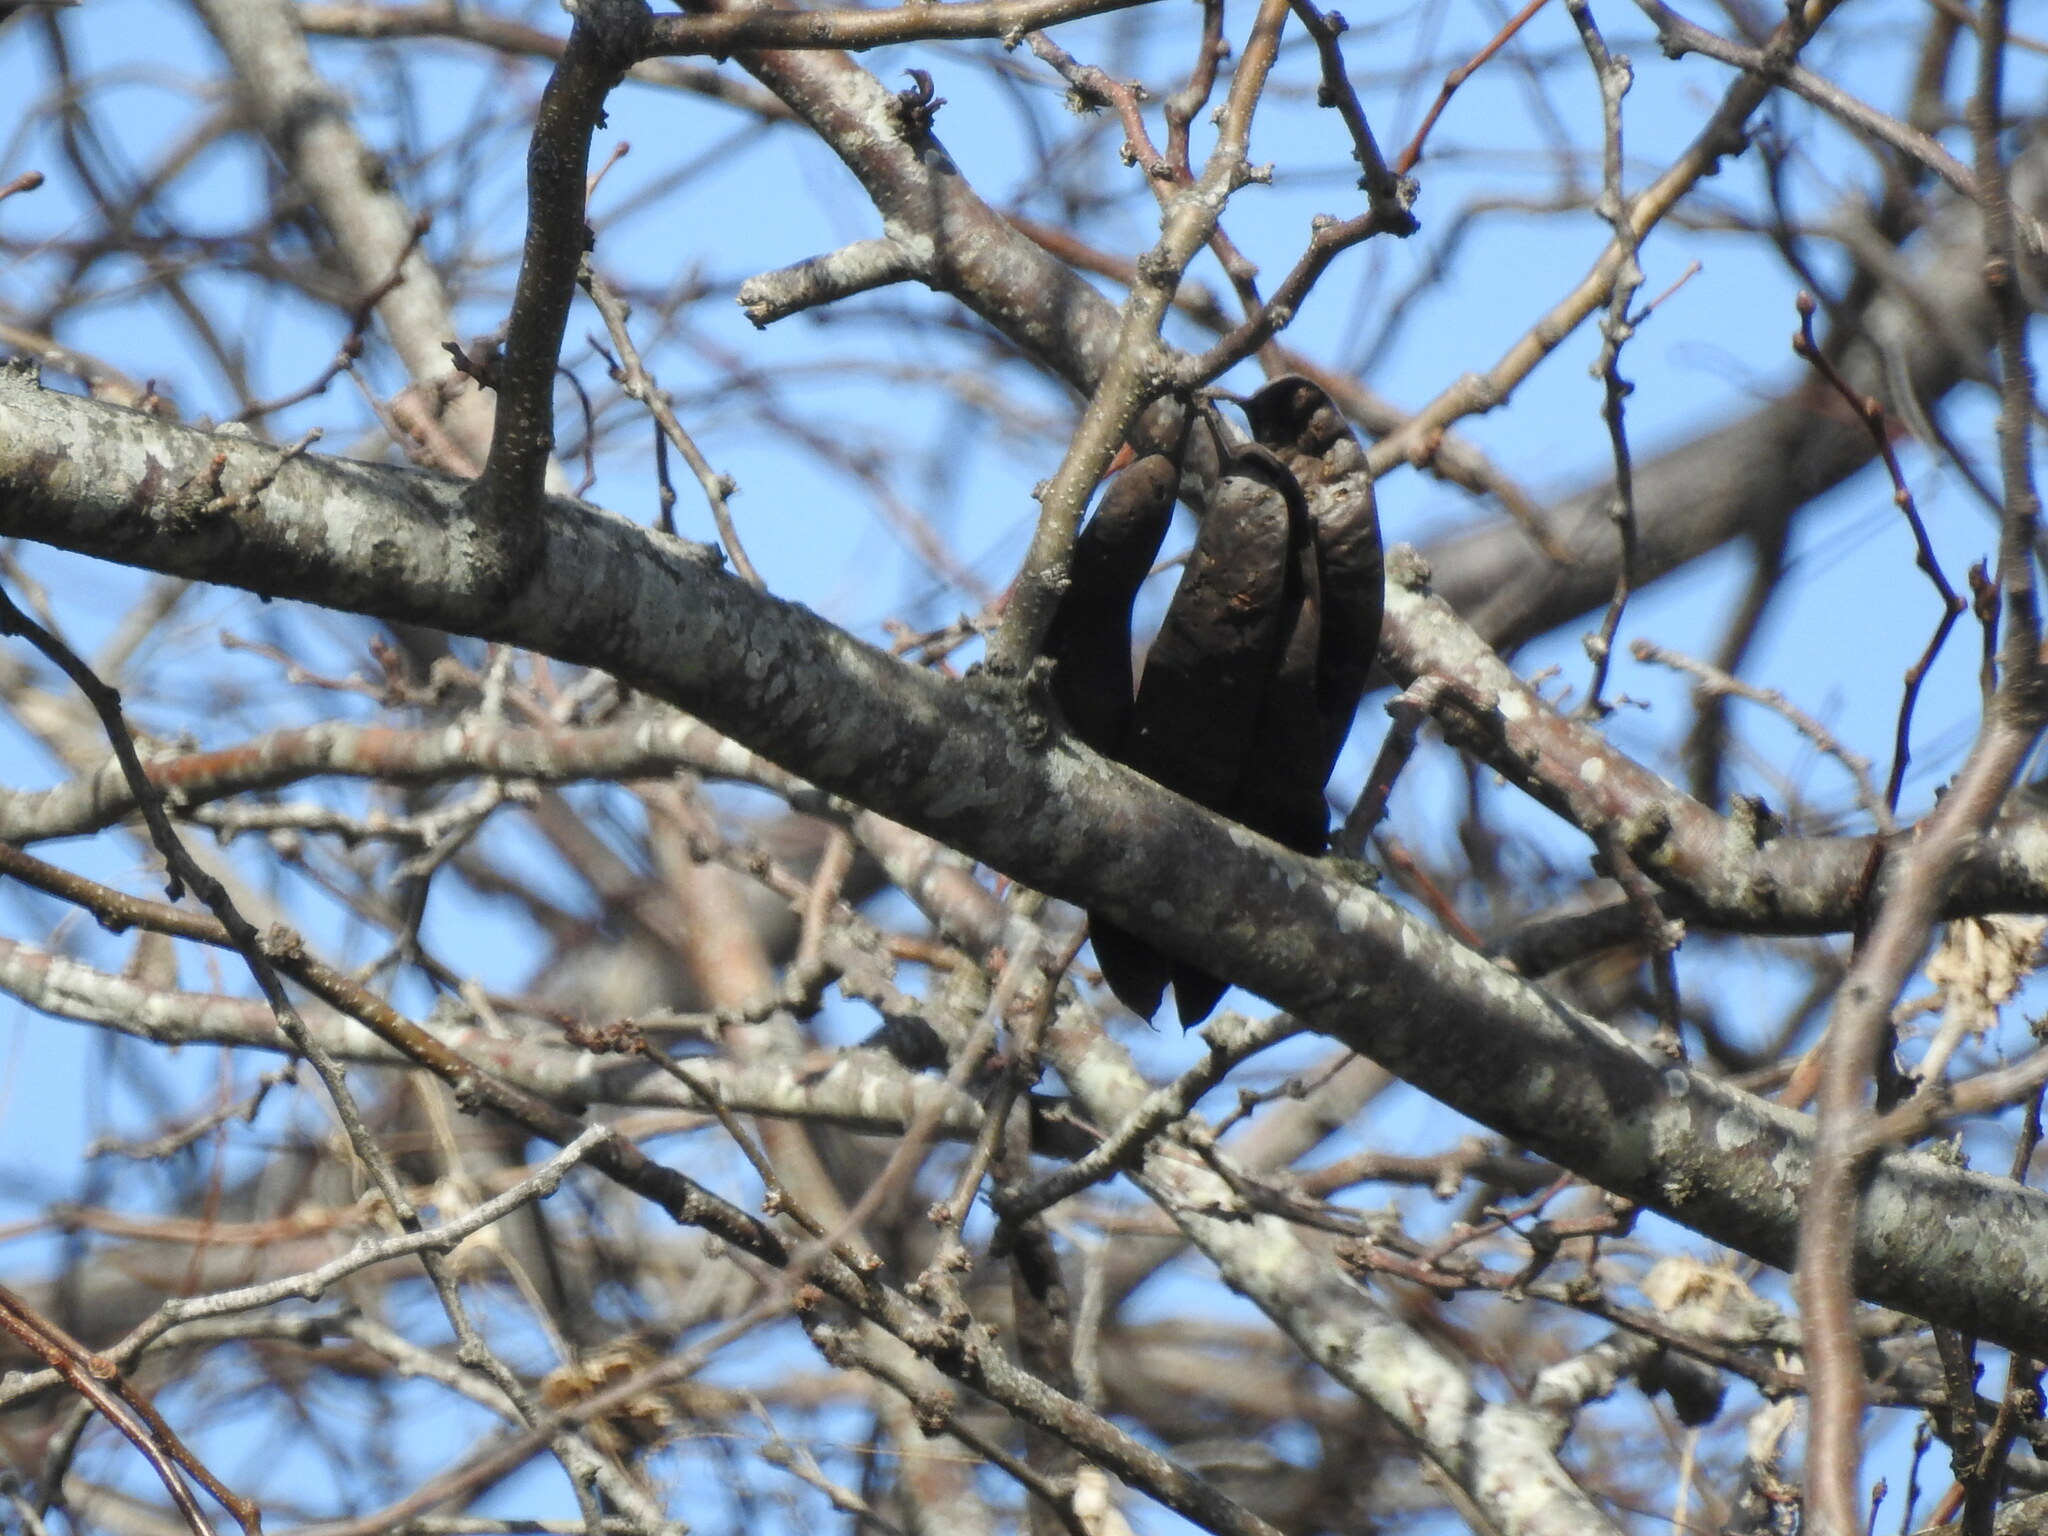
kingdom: Plantae
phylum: Tracheophyta
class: Magnoliopsida
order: Fabales
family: Fabaceae
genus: Gleditsia
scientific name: Gleditsia triacanthos
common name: Common honeylocust
